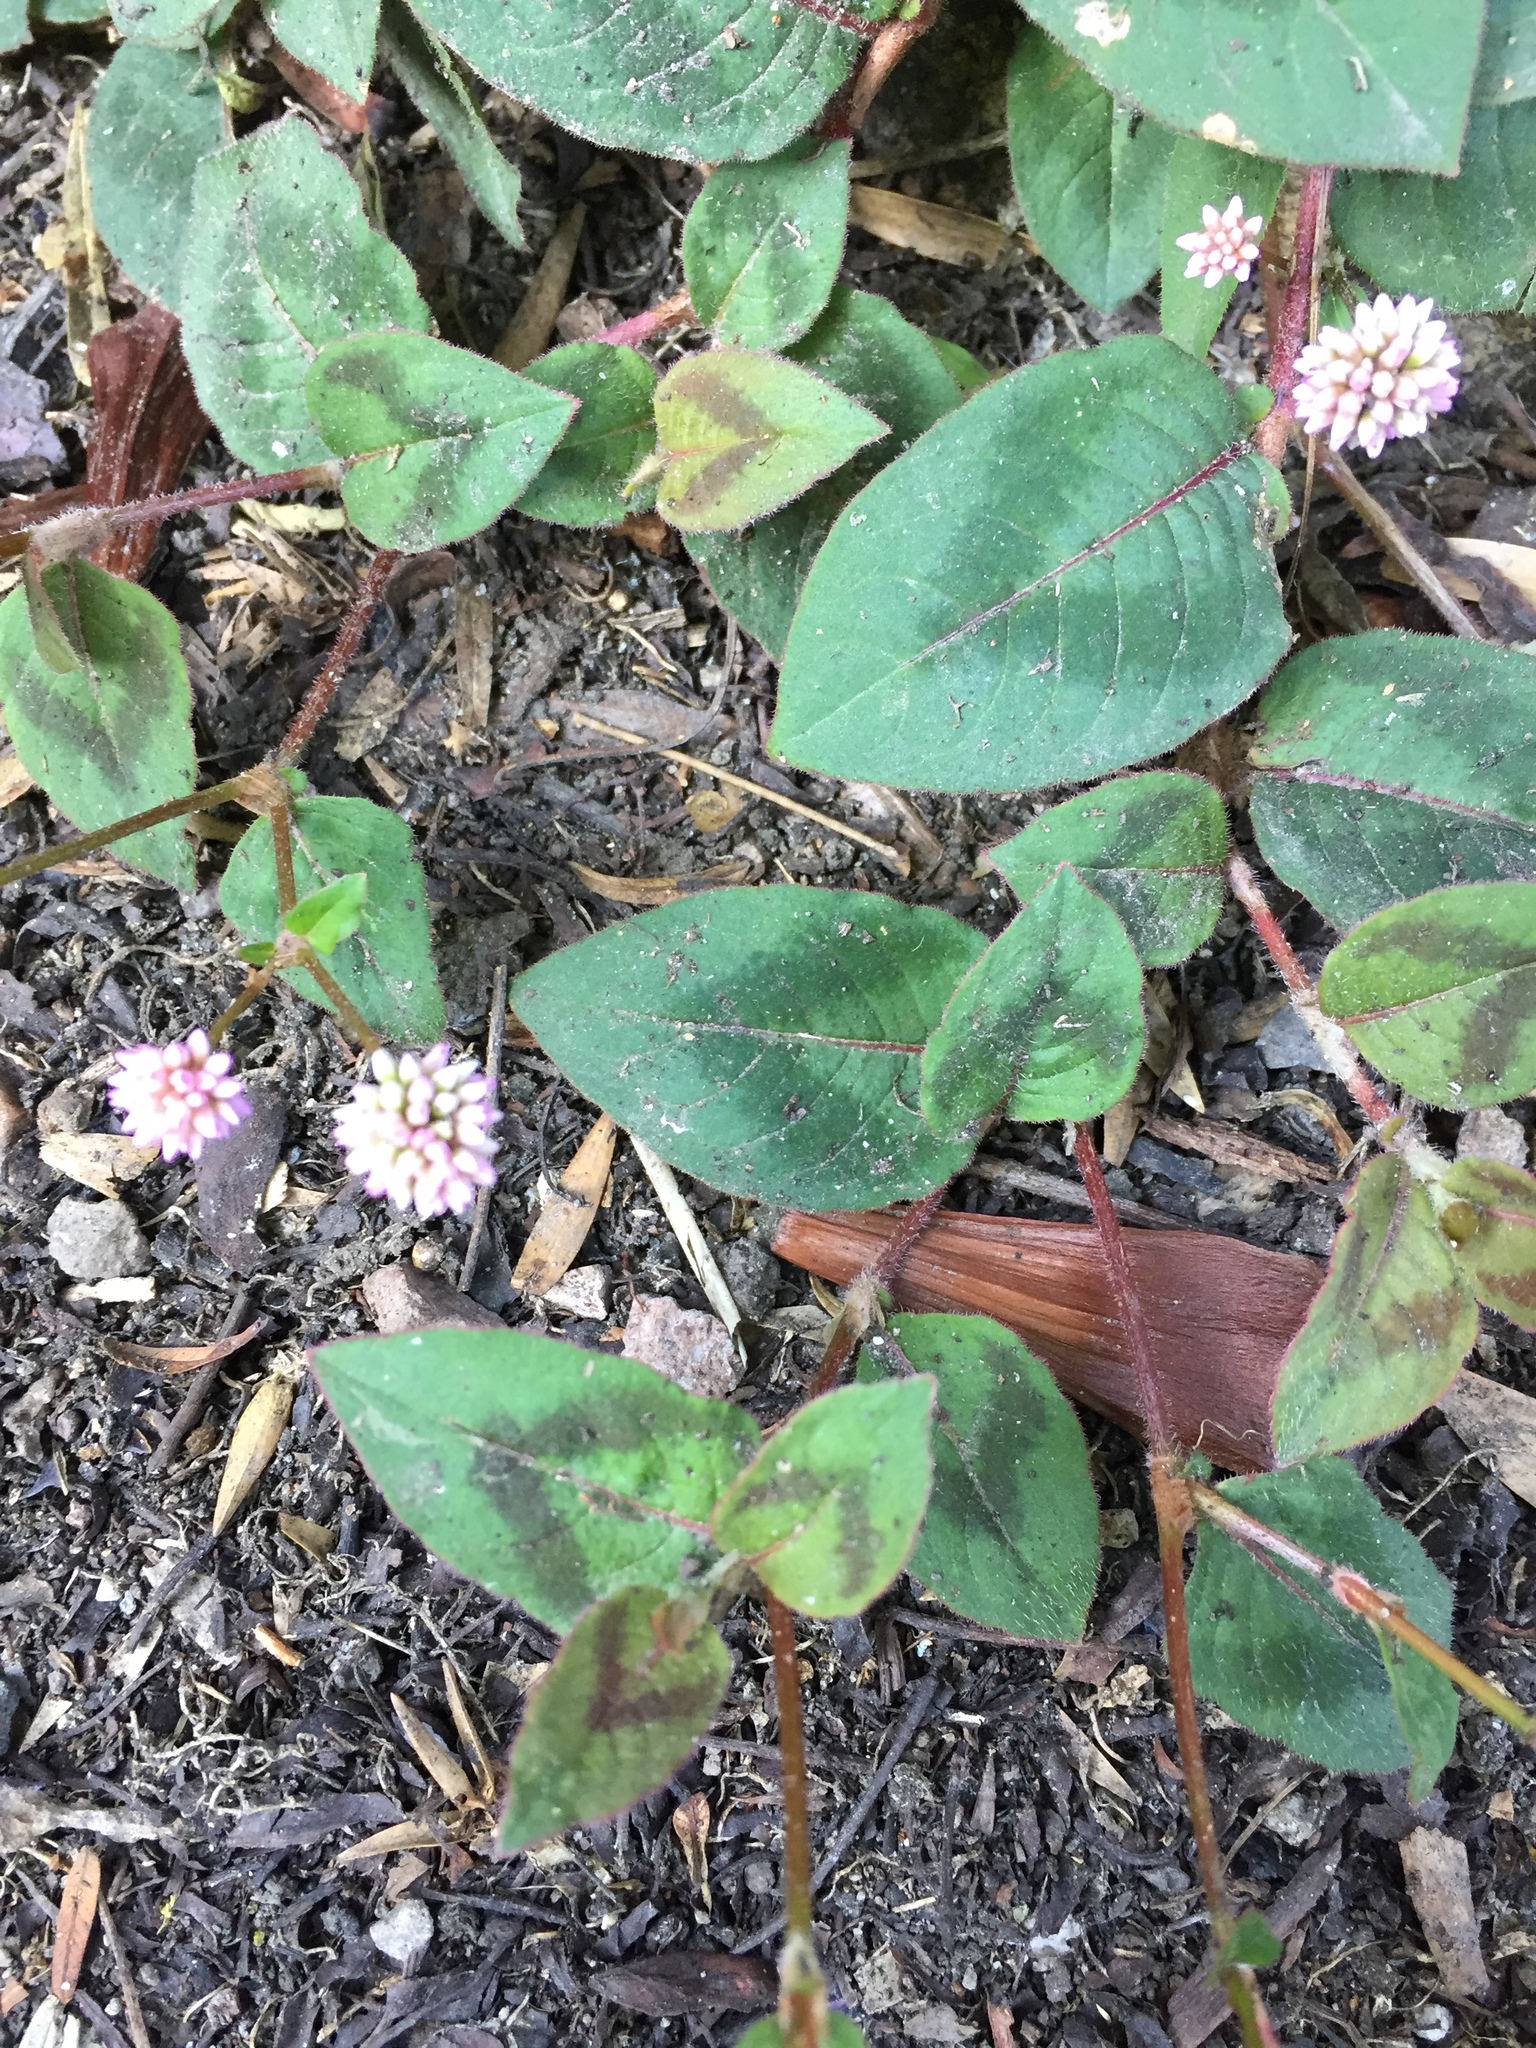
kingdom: Plantae
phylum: Tracheophyta
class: Magnoliopsida
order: Caryophyllales
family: Polygonaceae
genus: Persicaria
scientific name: Persicaria capitata
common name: Pinkhead smartweed
